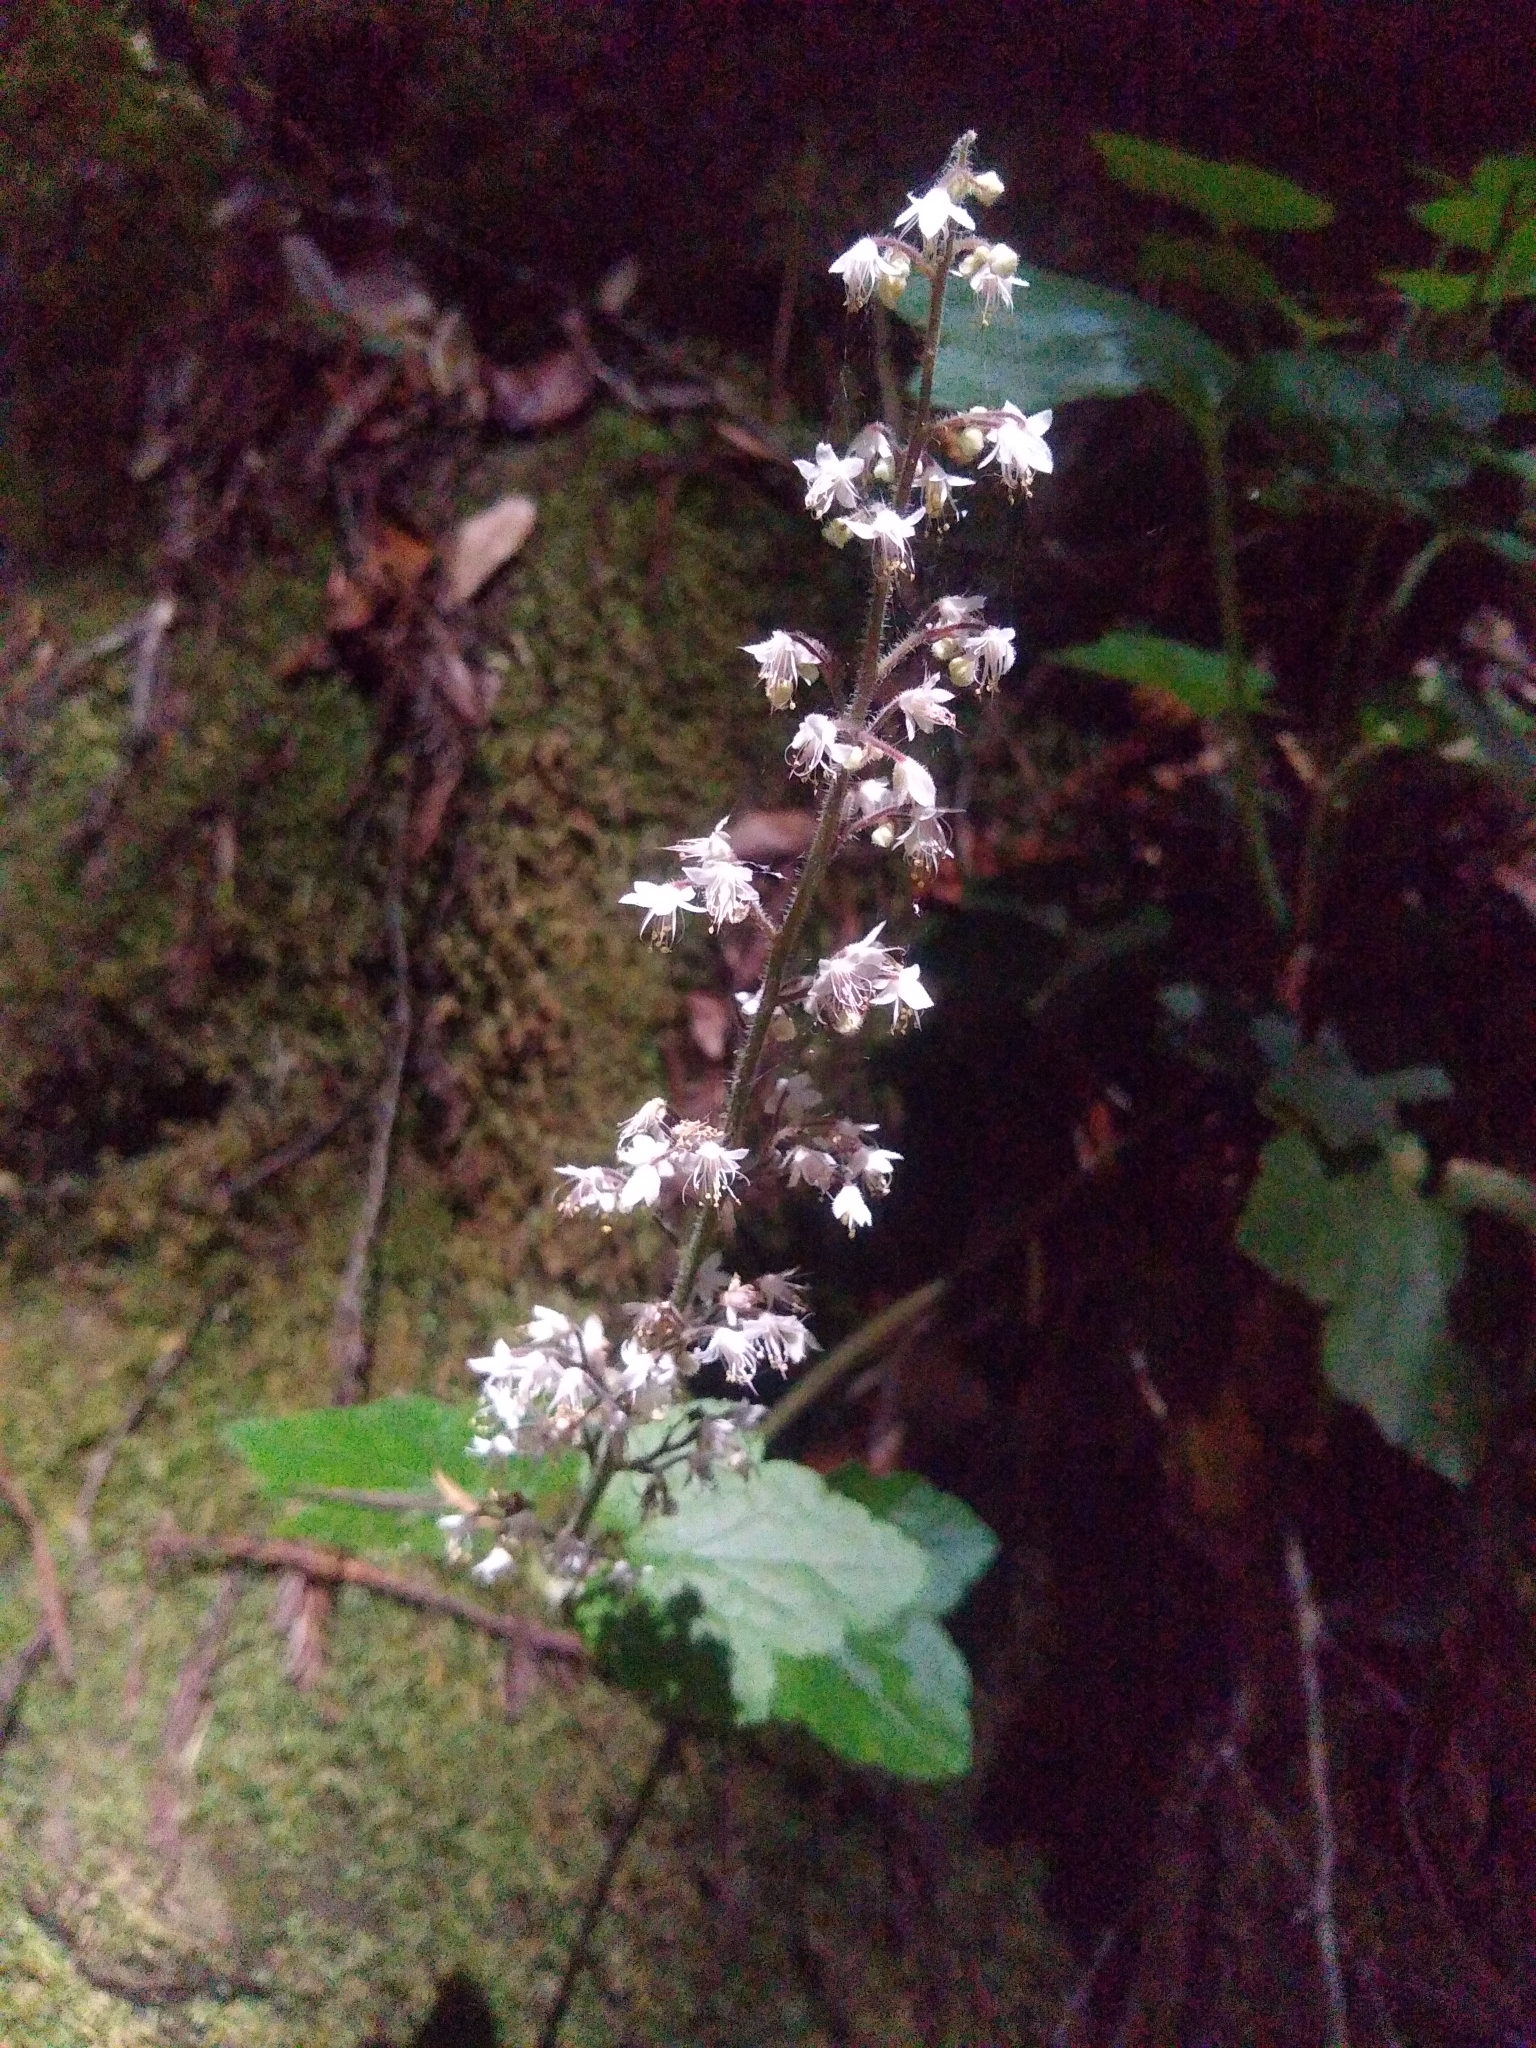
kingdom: Plantae
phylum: Tracheophyta
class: Magnoliopsida
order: Saxifragales
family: Saxifragaceae
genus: Tiarella
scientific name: Tiarella trifoliata
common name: Sugar-scoop
